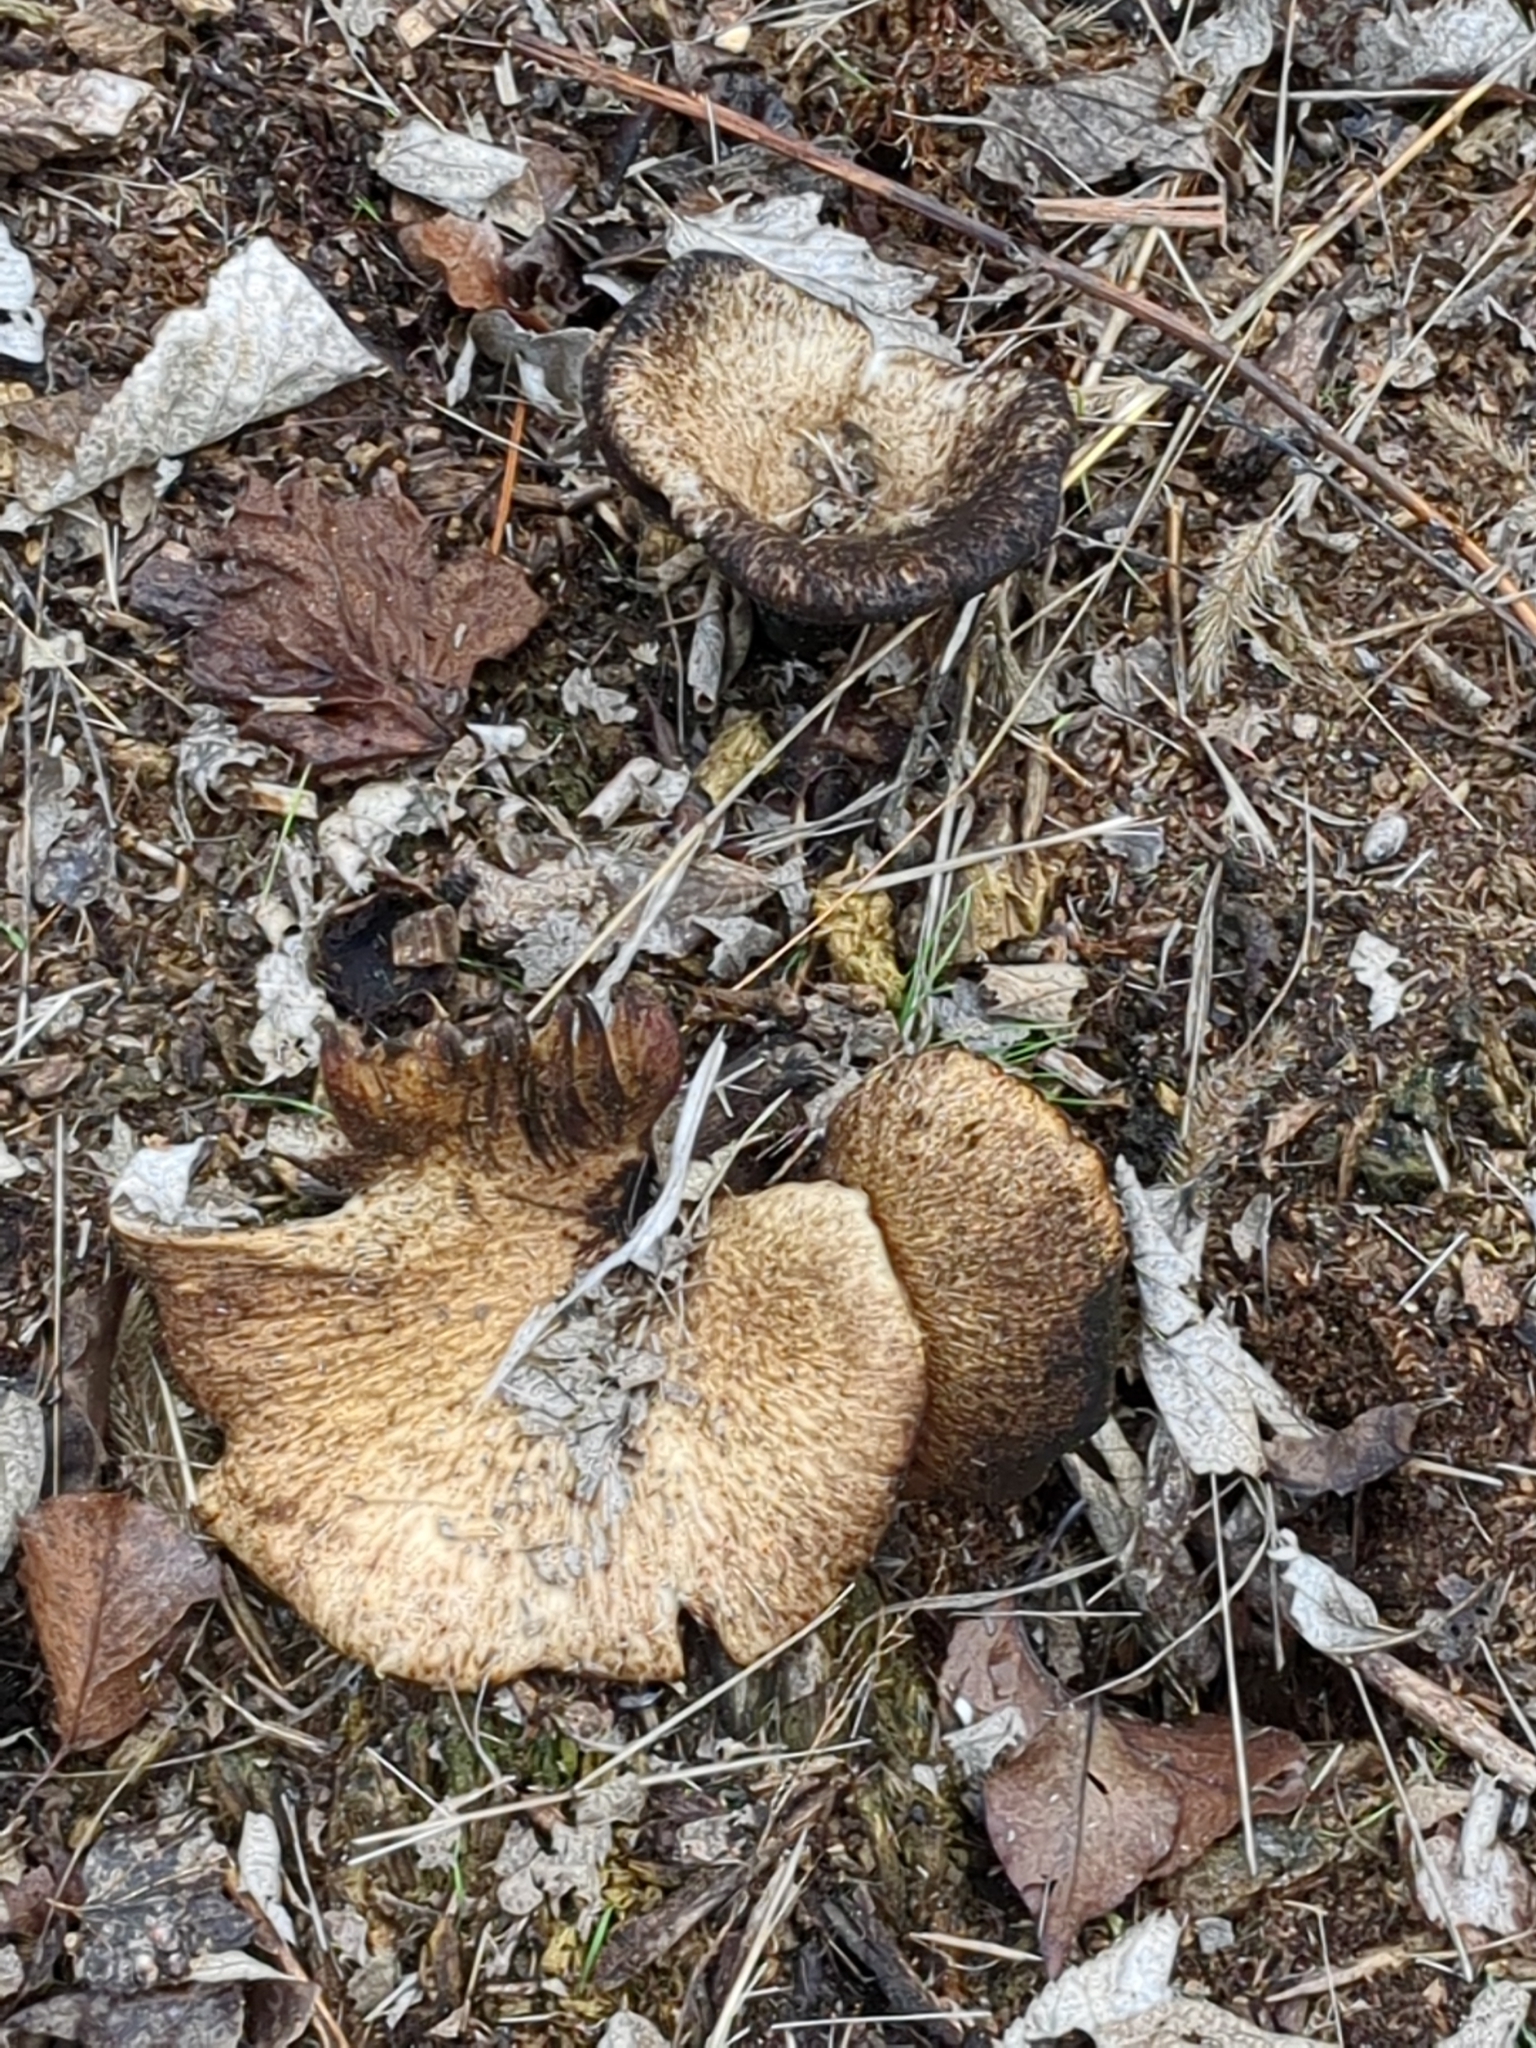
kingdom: Fungi
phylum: Basidiomycota
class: Agaricomycetes
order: Polyporales
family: Polyporaceae
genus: Cerioporus
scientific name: Cerioporus squamosus
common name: Dryad's saddle
